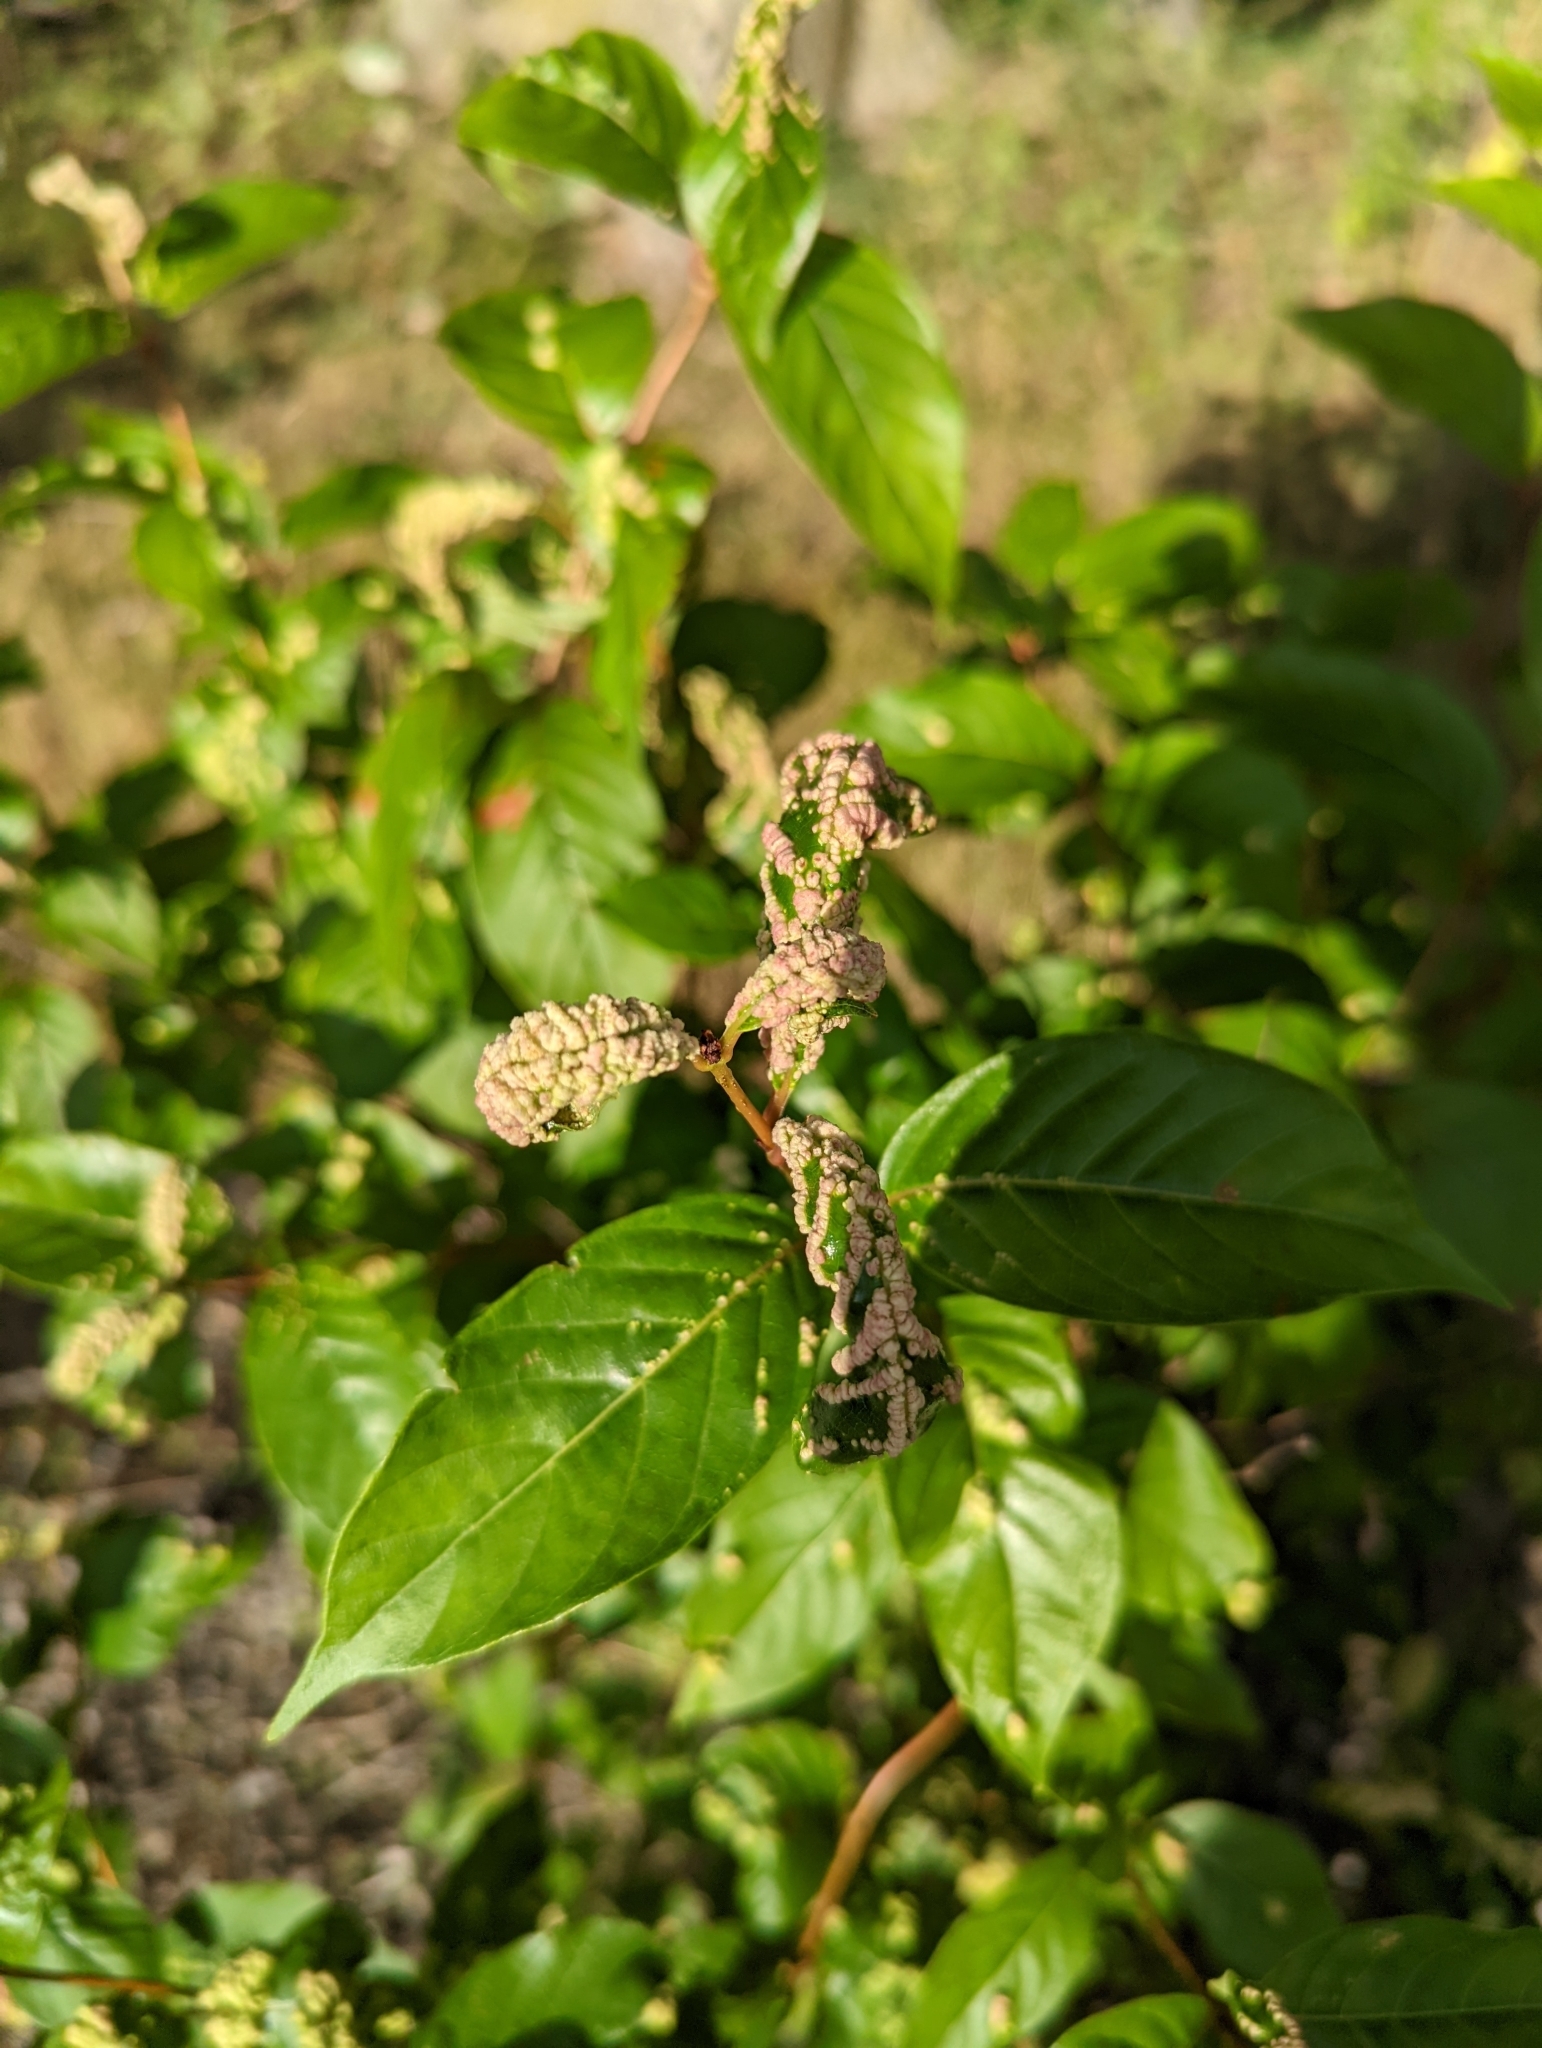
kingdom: Animalia
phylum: Arthropoda
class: Arachnida
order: Trombidiformes
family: Eriophyidae
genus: Aceria
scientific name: Aceria
